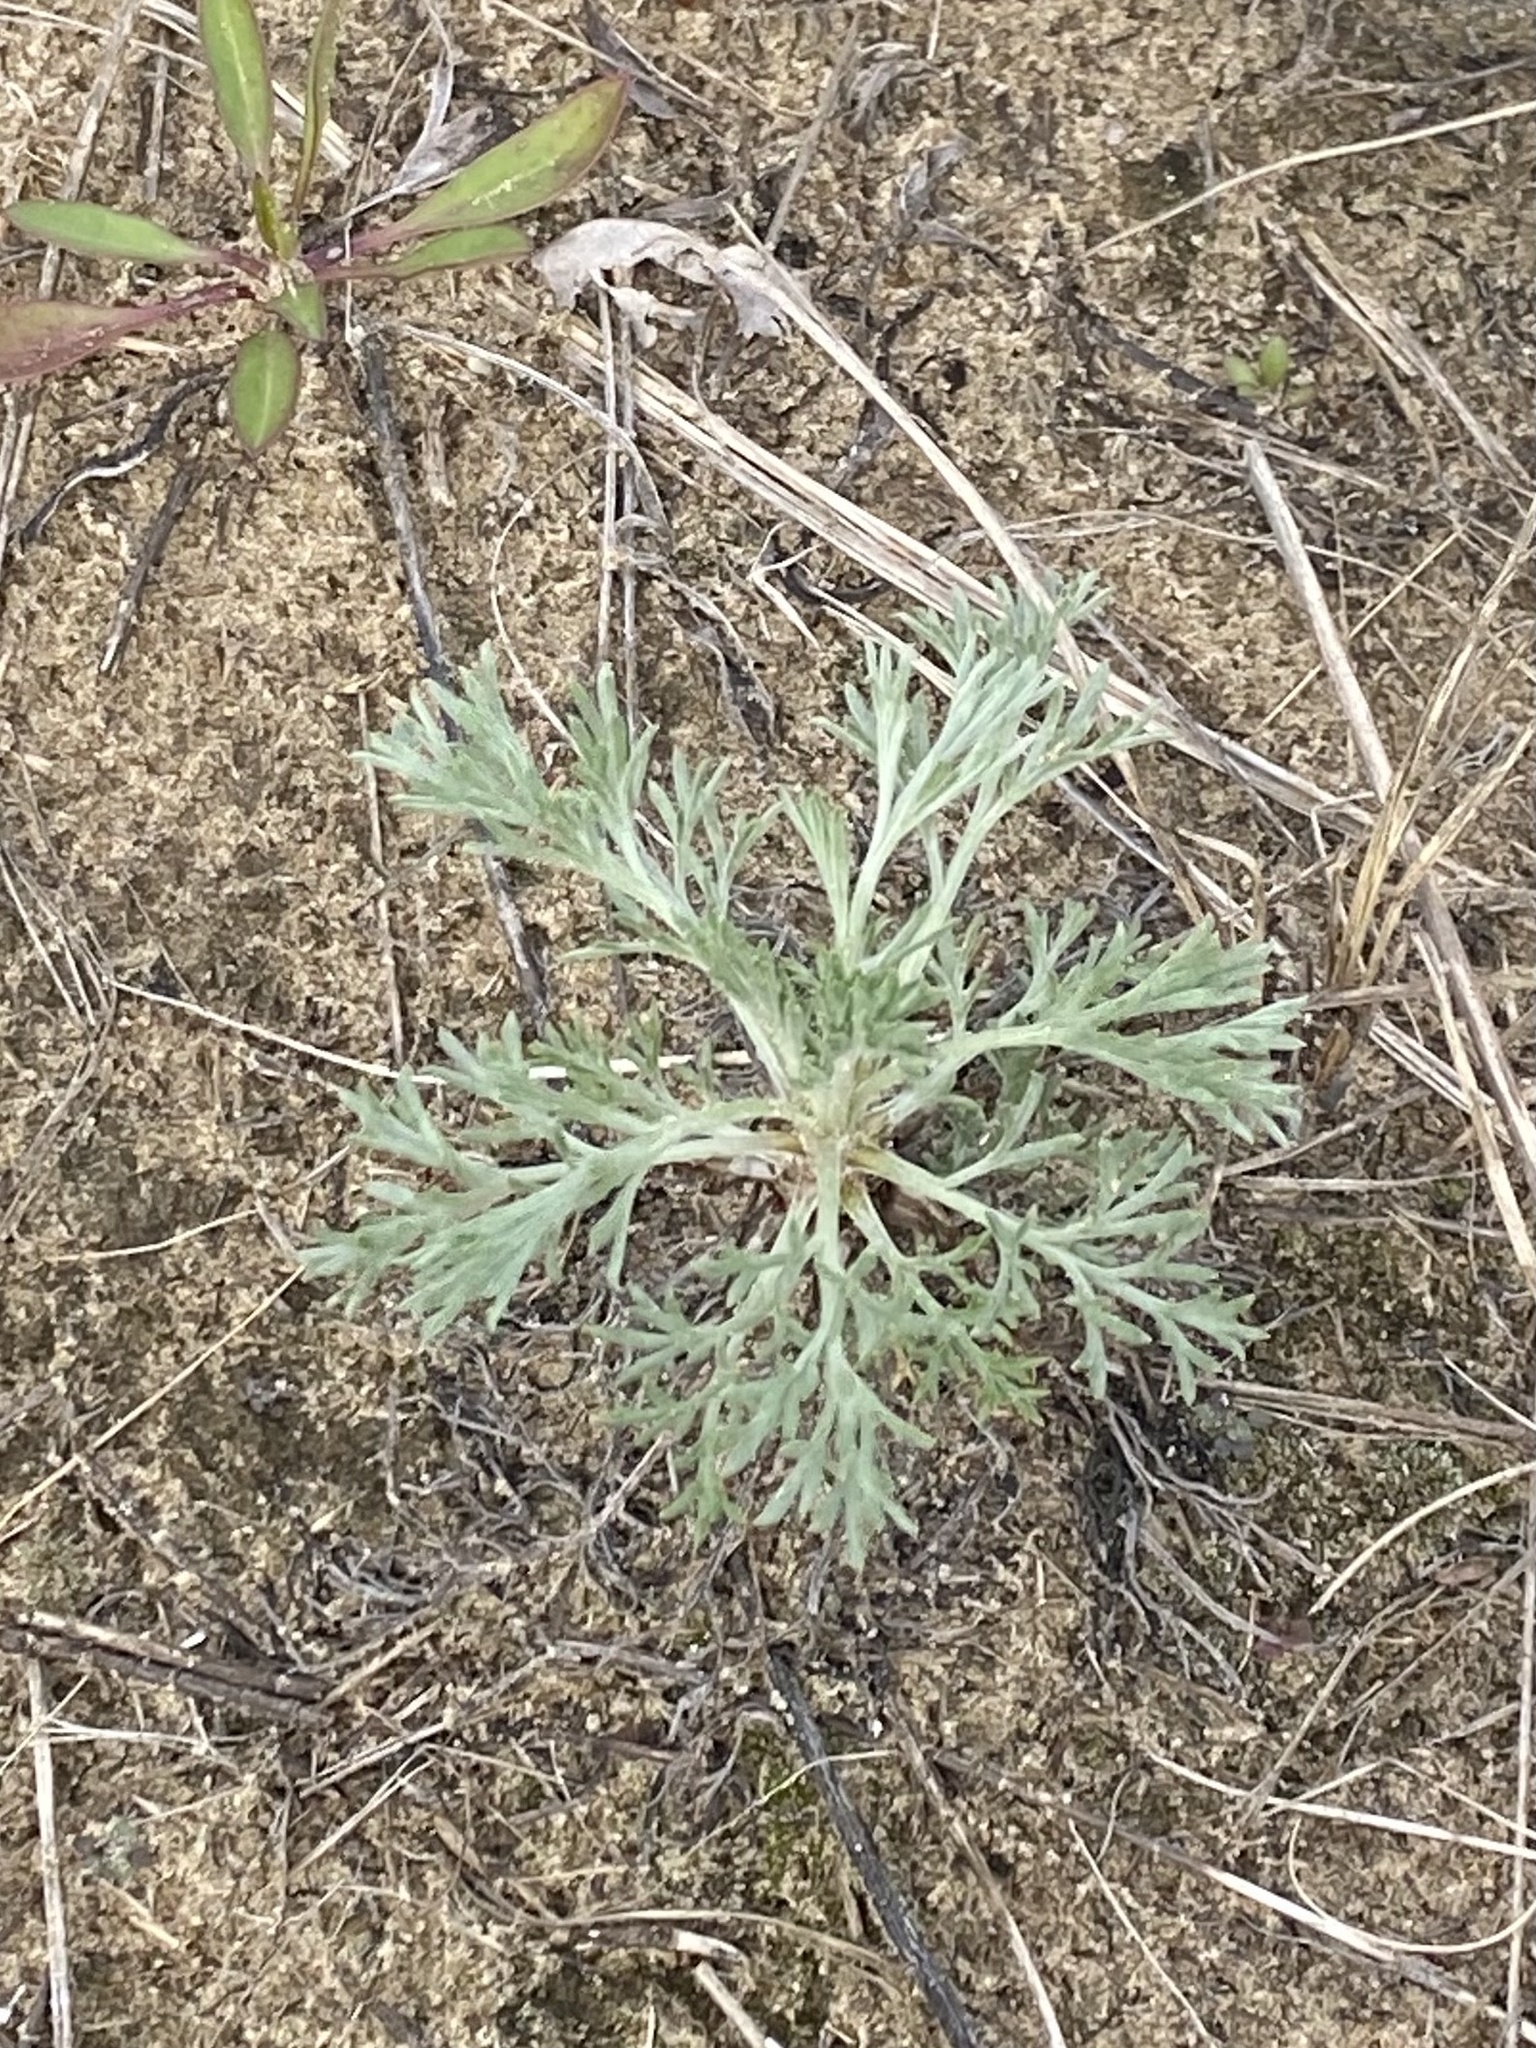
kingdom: Plantae
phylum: Tracheophyta
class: Magnoliopsida
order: Asterales
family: Asteraceae
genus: Artemisia
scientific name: Artemisia campestris
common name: Field wormwood
